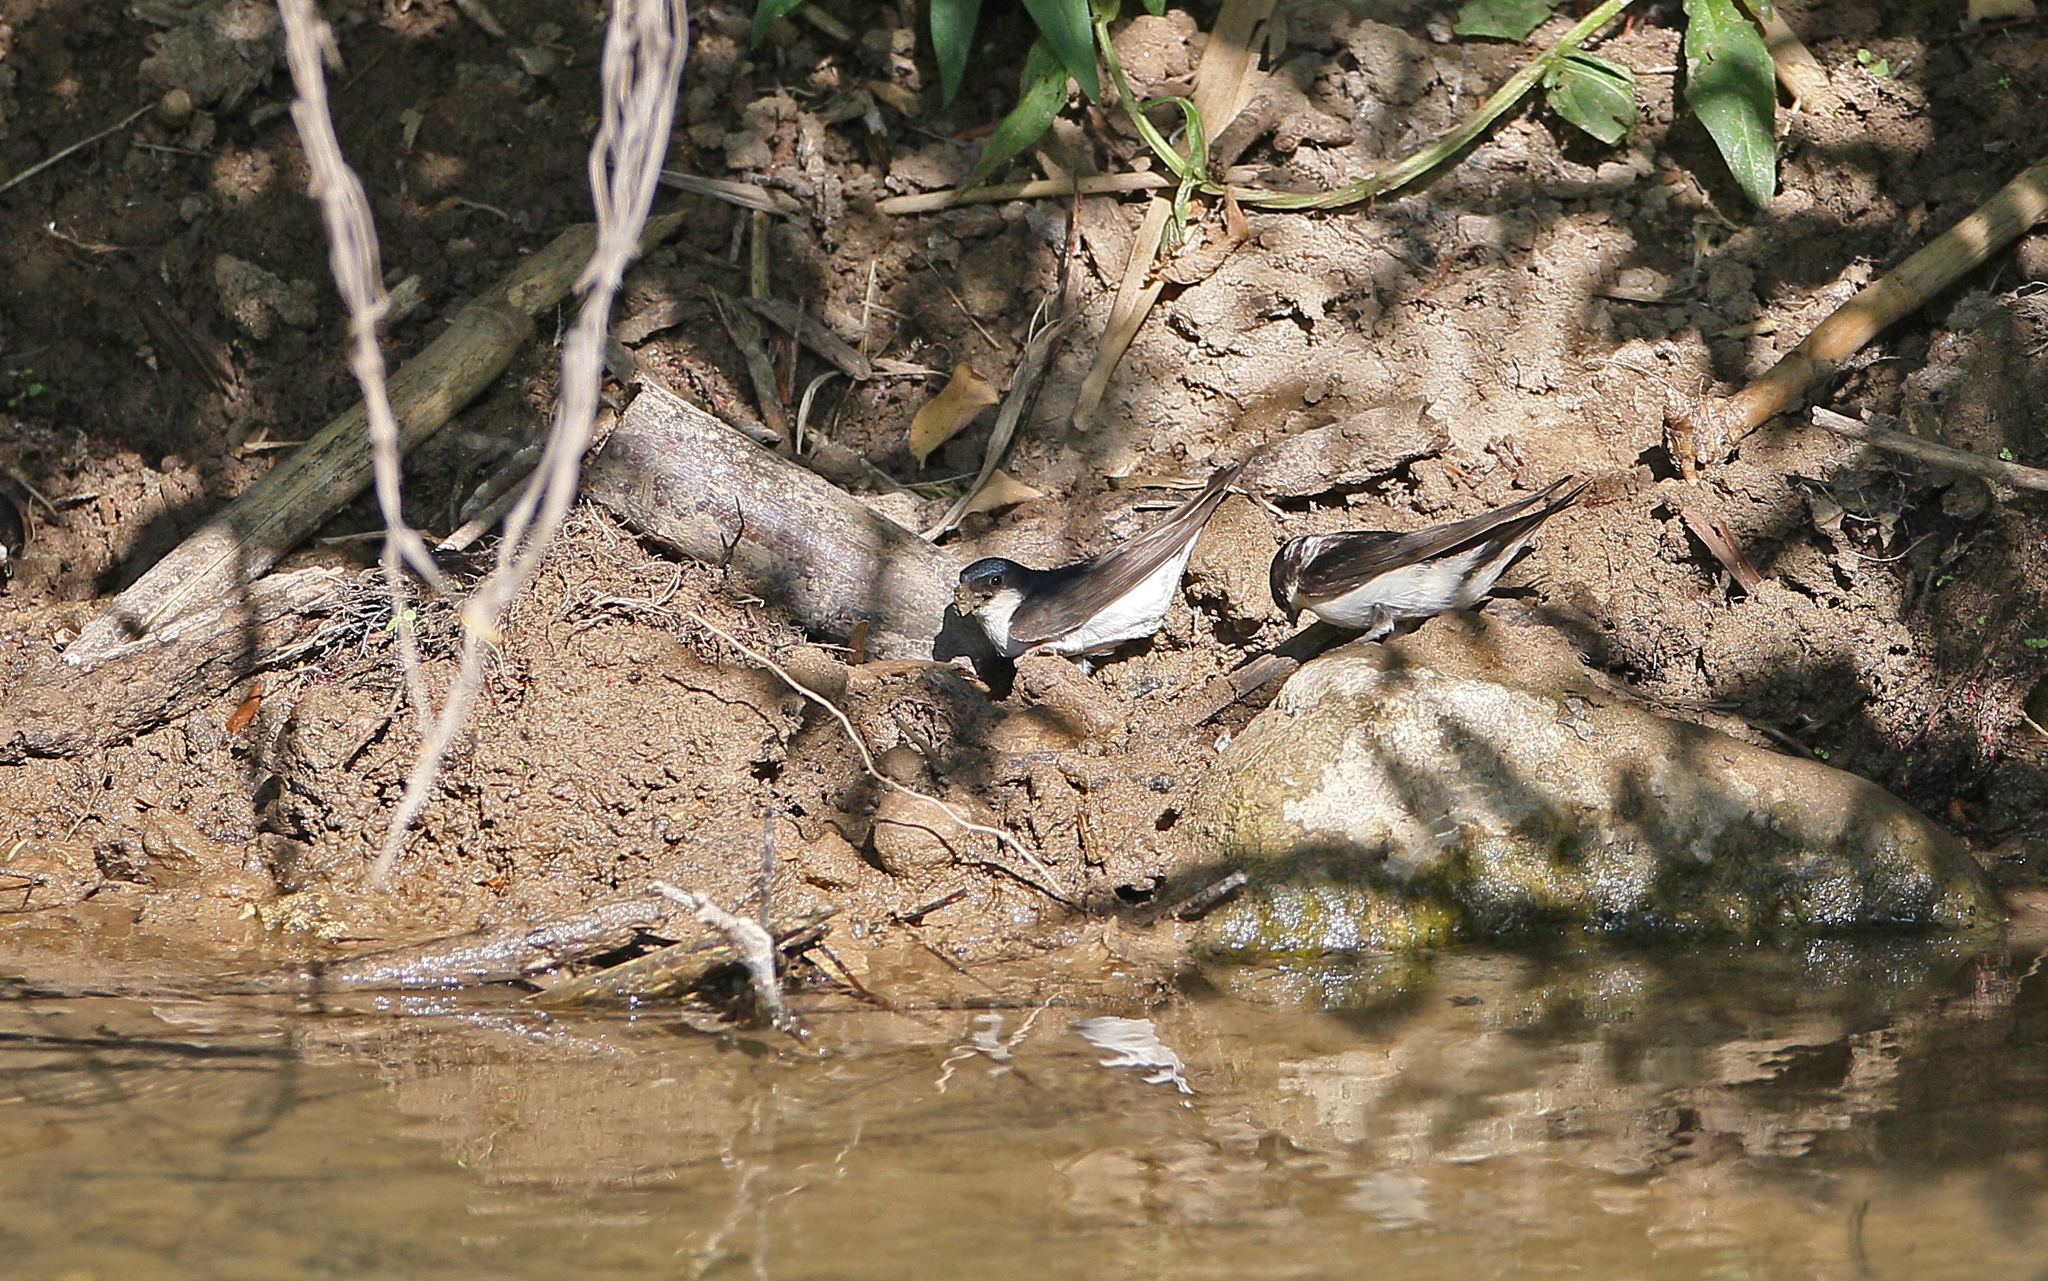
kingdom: Animalia
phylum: Chordata
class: Aves
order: Passeriformes
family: Hirundinidae
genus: Delichon
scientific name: Delichon urbicum
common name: Common house martin
